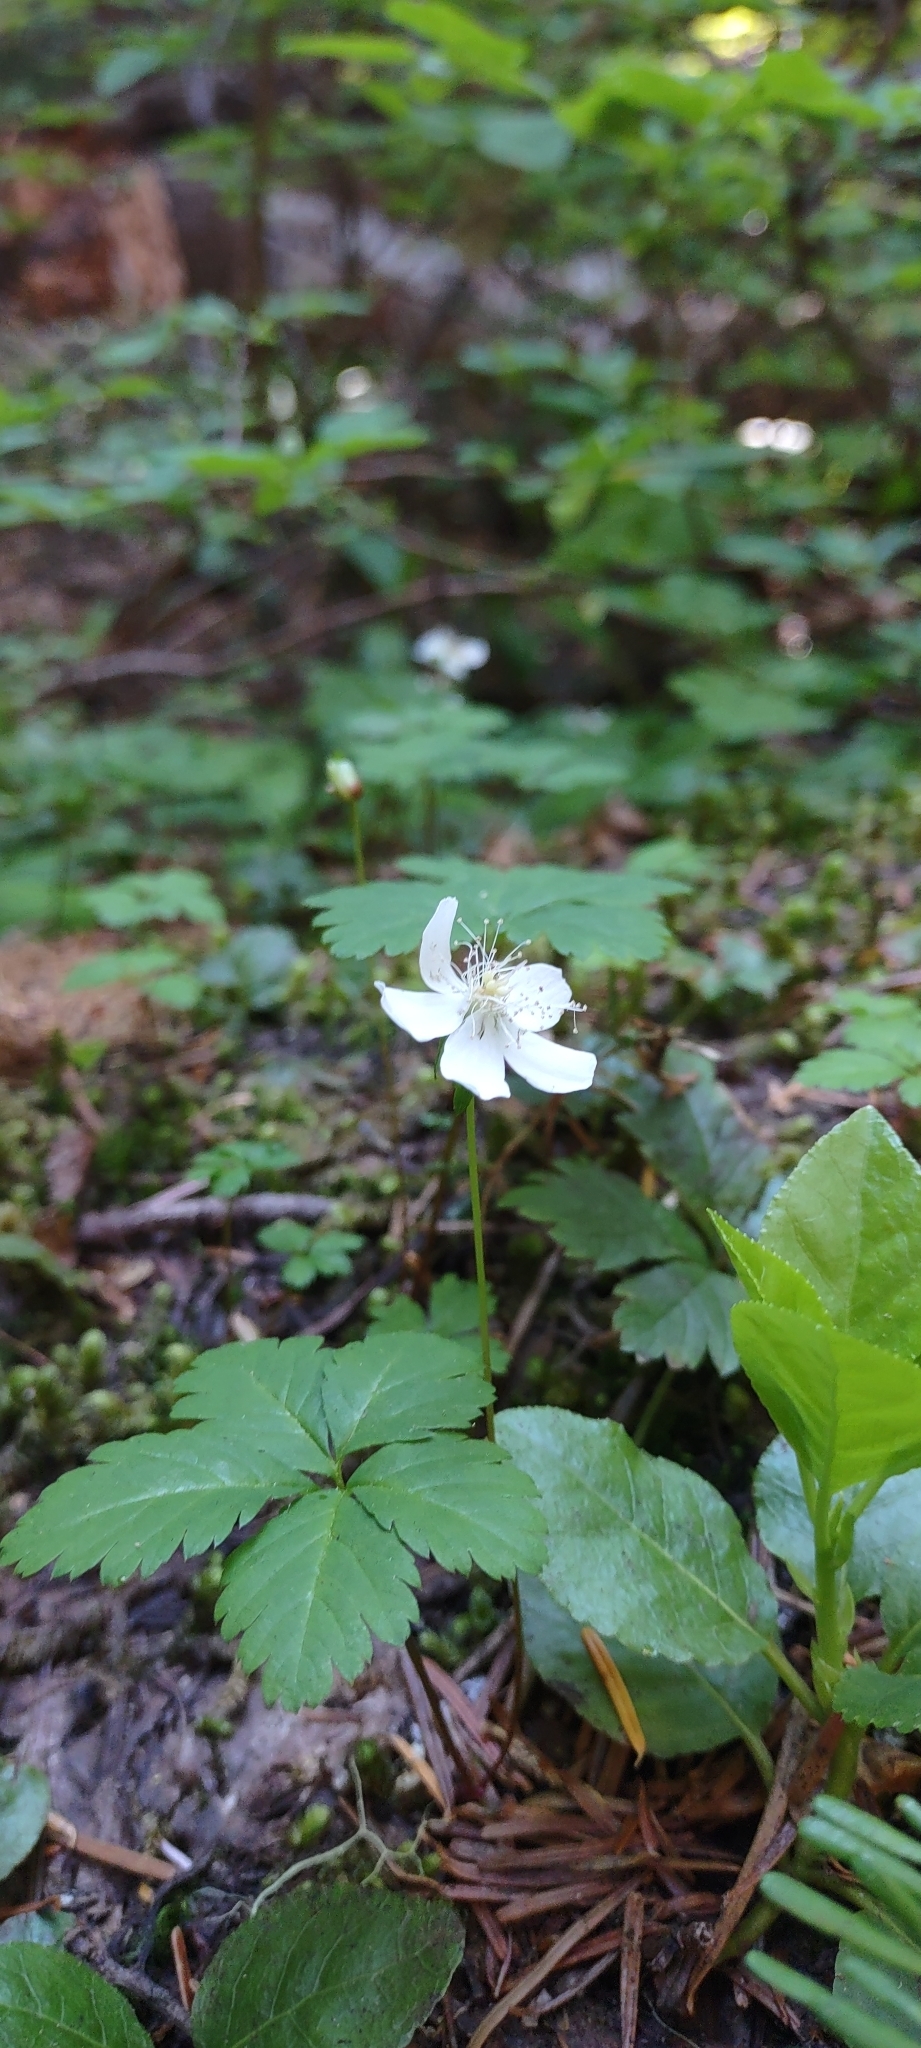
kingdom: Plantae
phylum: Tracheophyta
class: Magnoliopsida
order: Rosales
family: Rosaceae
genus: Rubus
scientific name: Rubus pedatus
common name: Creeping raspberry
